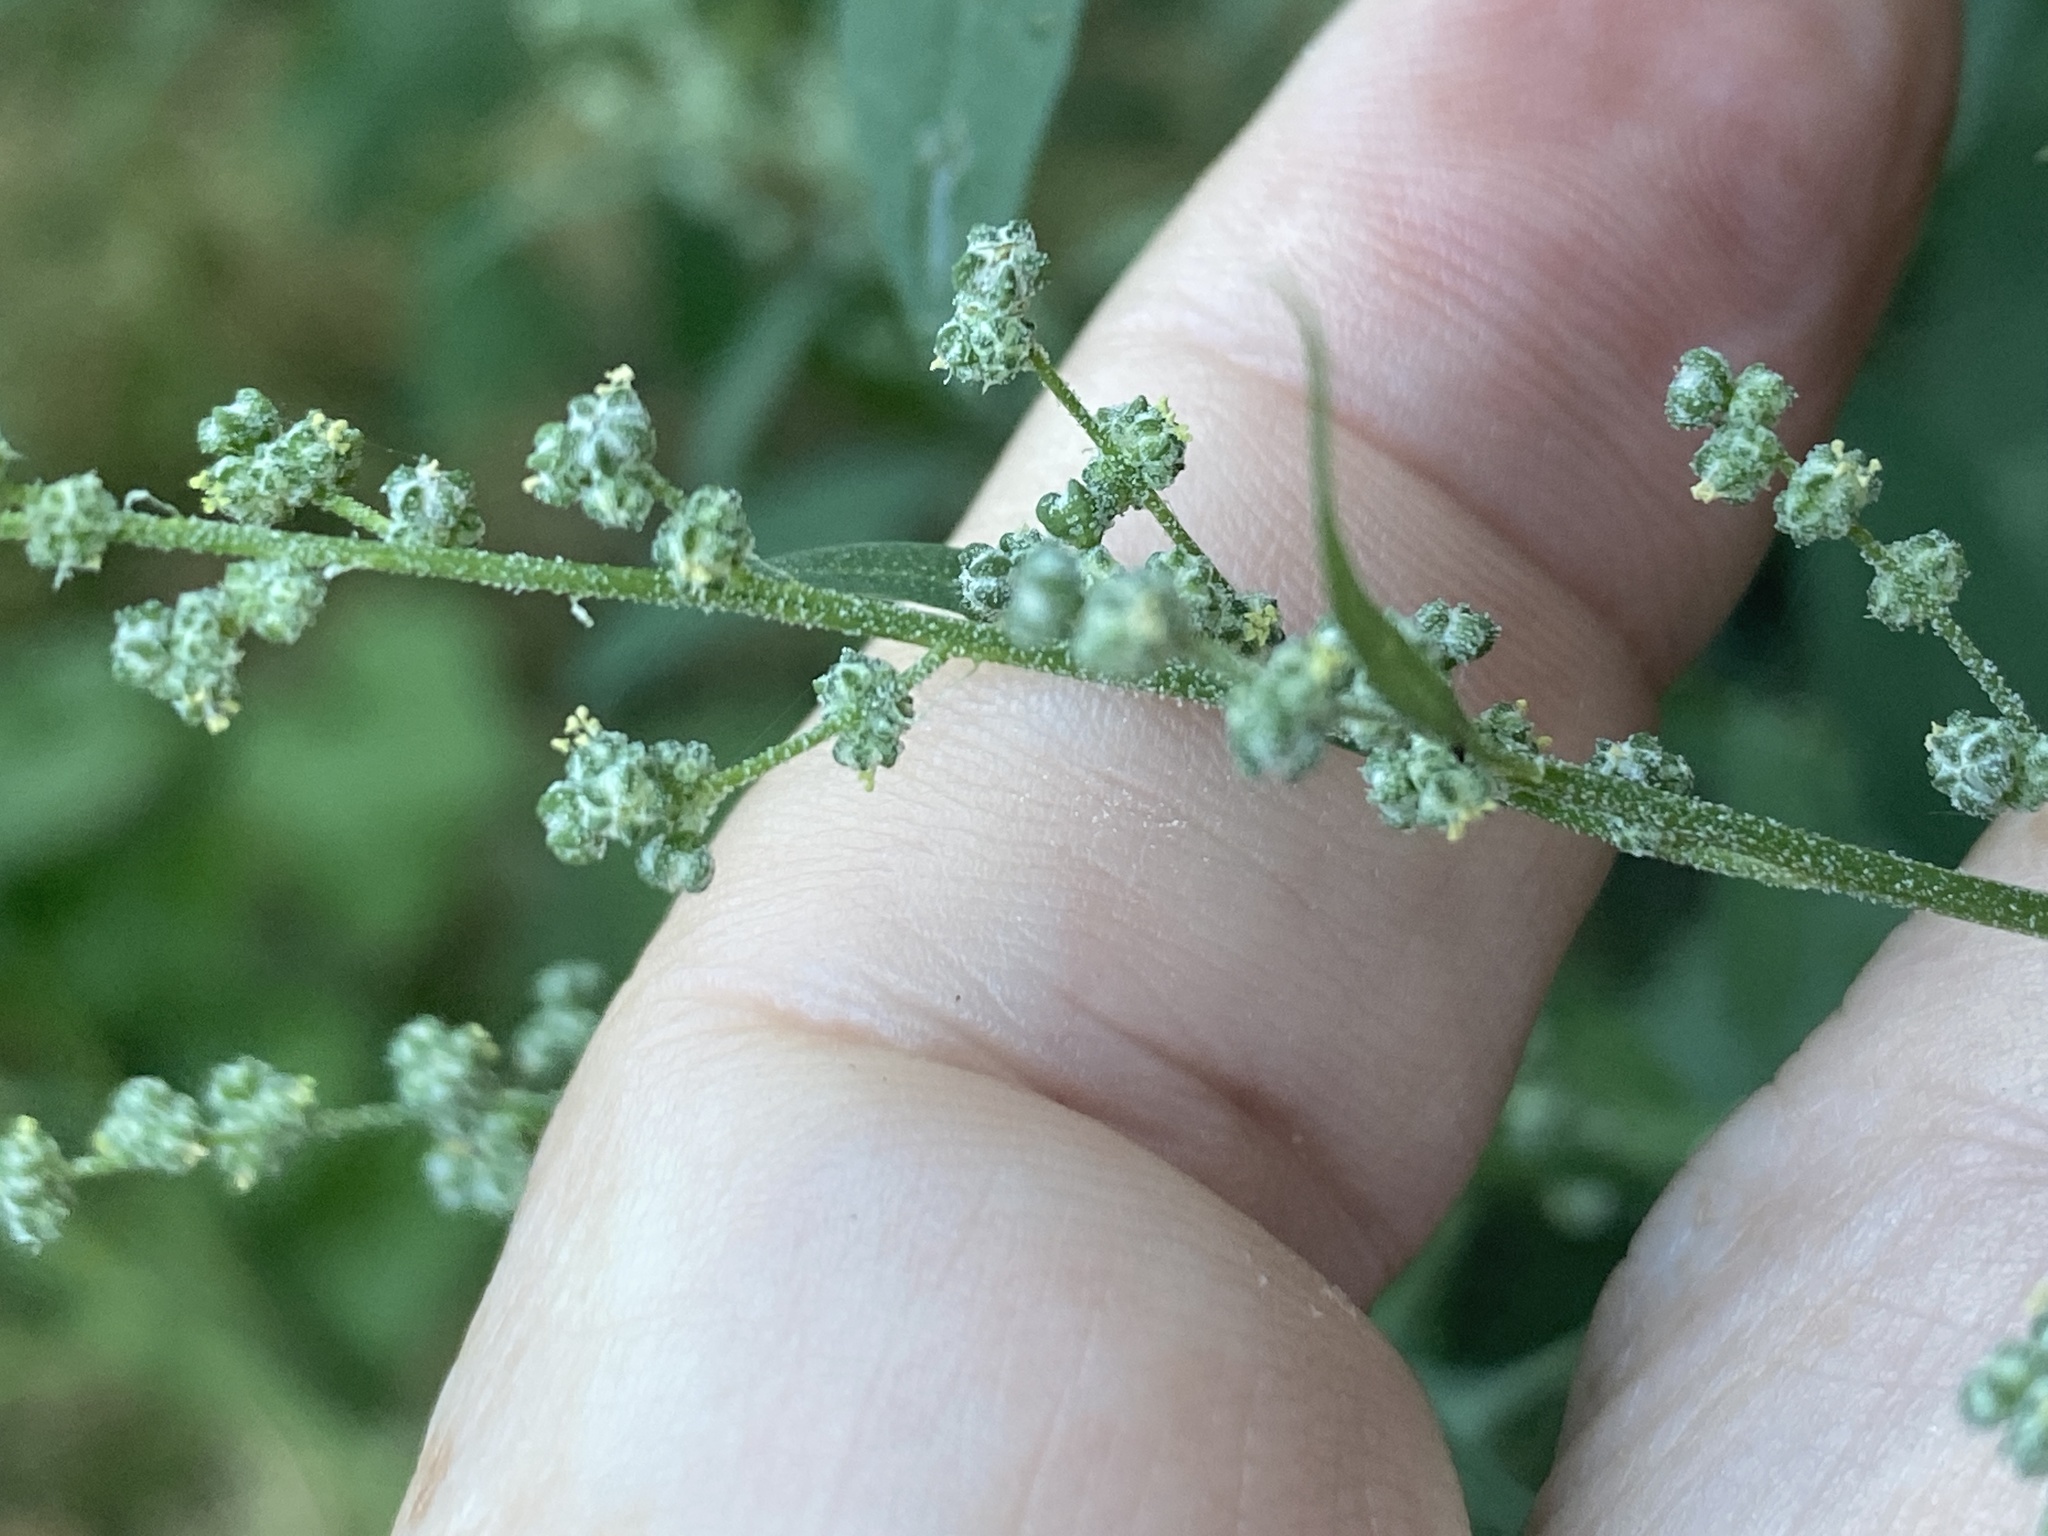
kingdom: Plantae
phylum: Tracheophyta
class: Magnoliopsida
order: Caryophyllales
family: Amaranthaceae
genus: Chenopodium
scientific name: Chenopodium album
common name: Fat-hen
